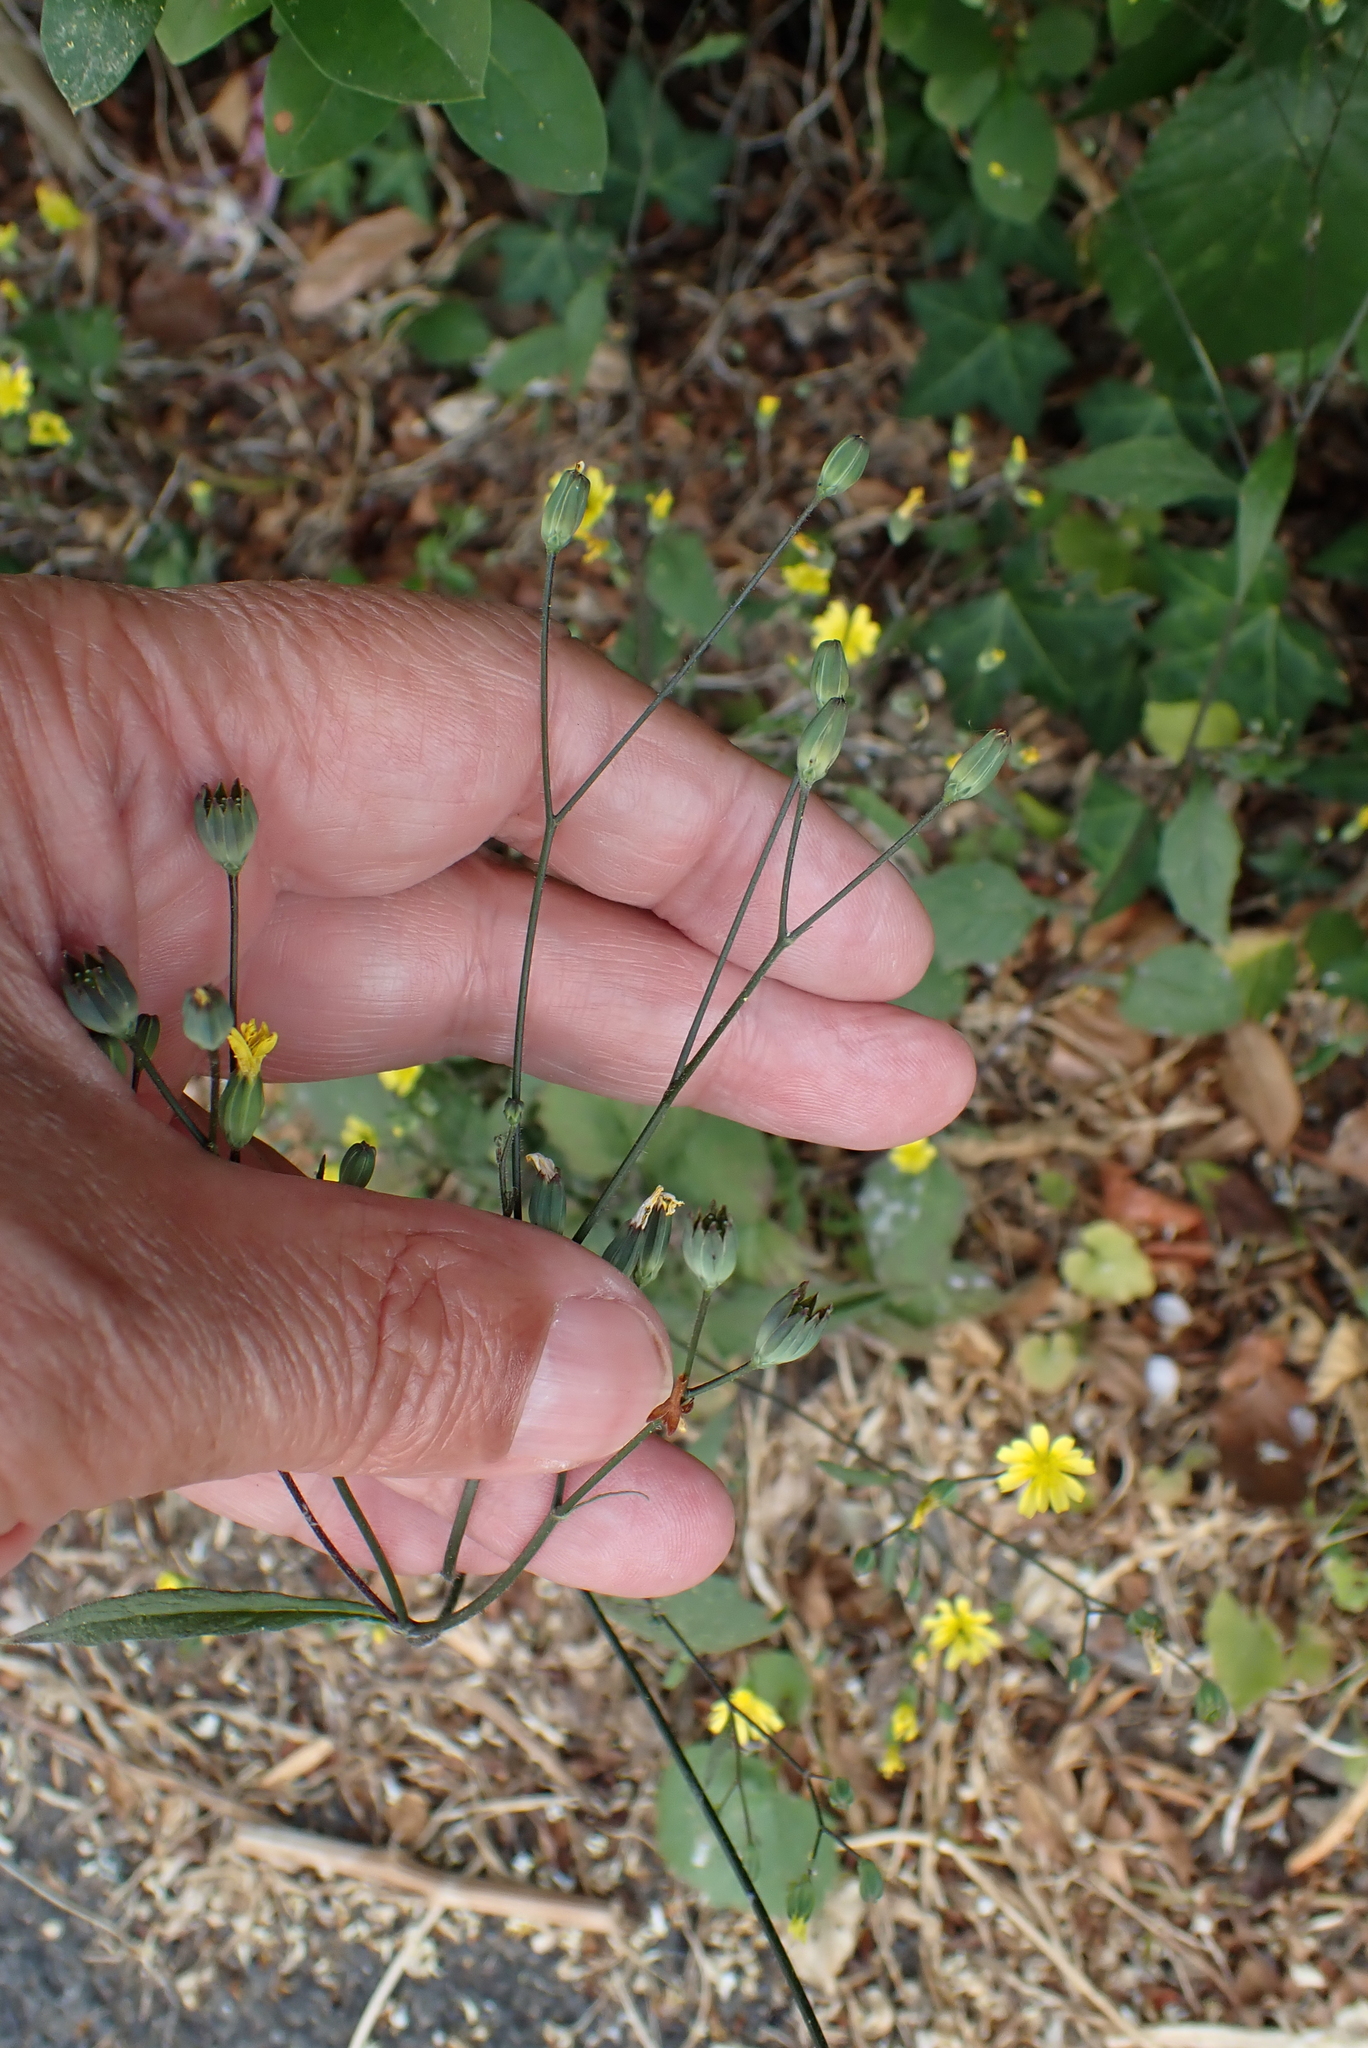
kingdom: Plantae
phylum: Tracheophyta
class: Magnoliopsida
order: Asterales
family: Asteraceae
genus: Lapsana
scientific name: Lapsana communis
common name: Nipplewort
